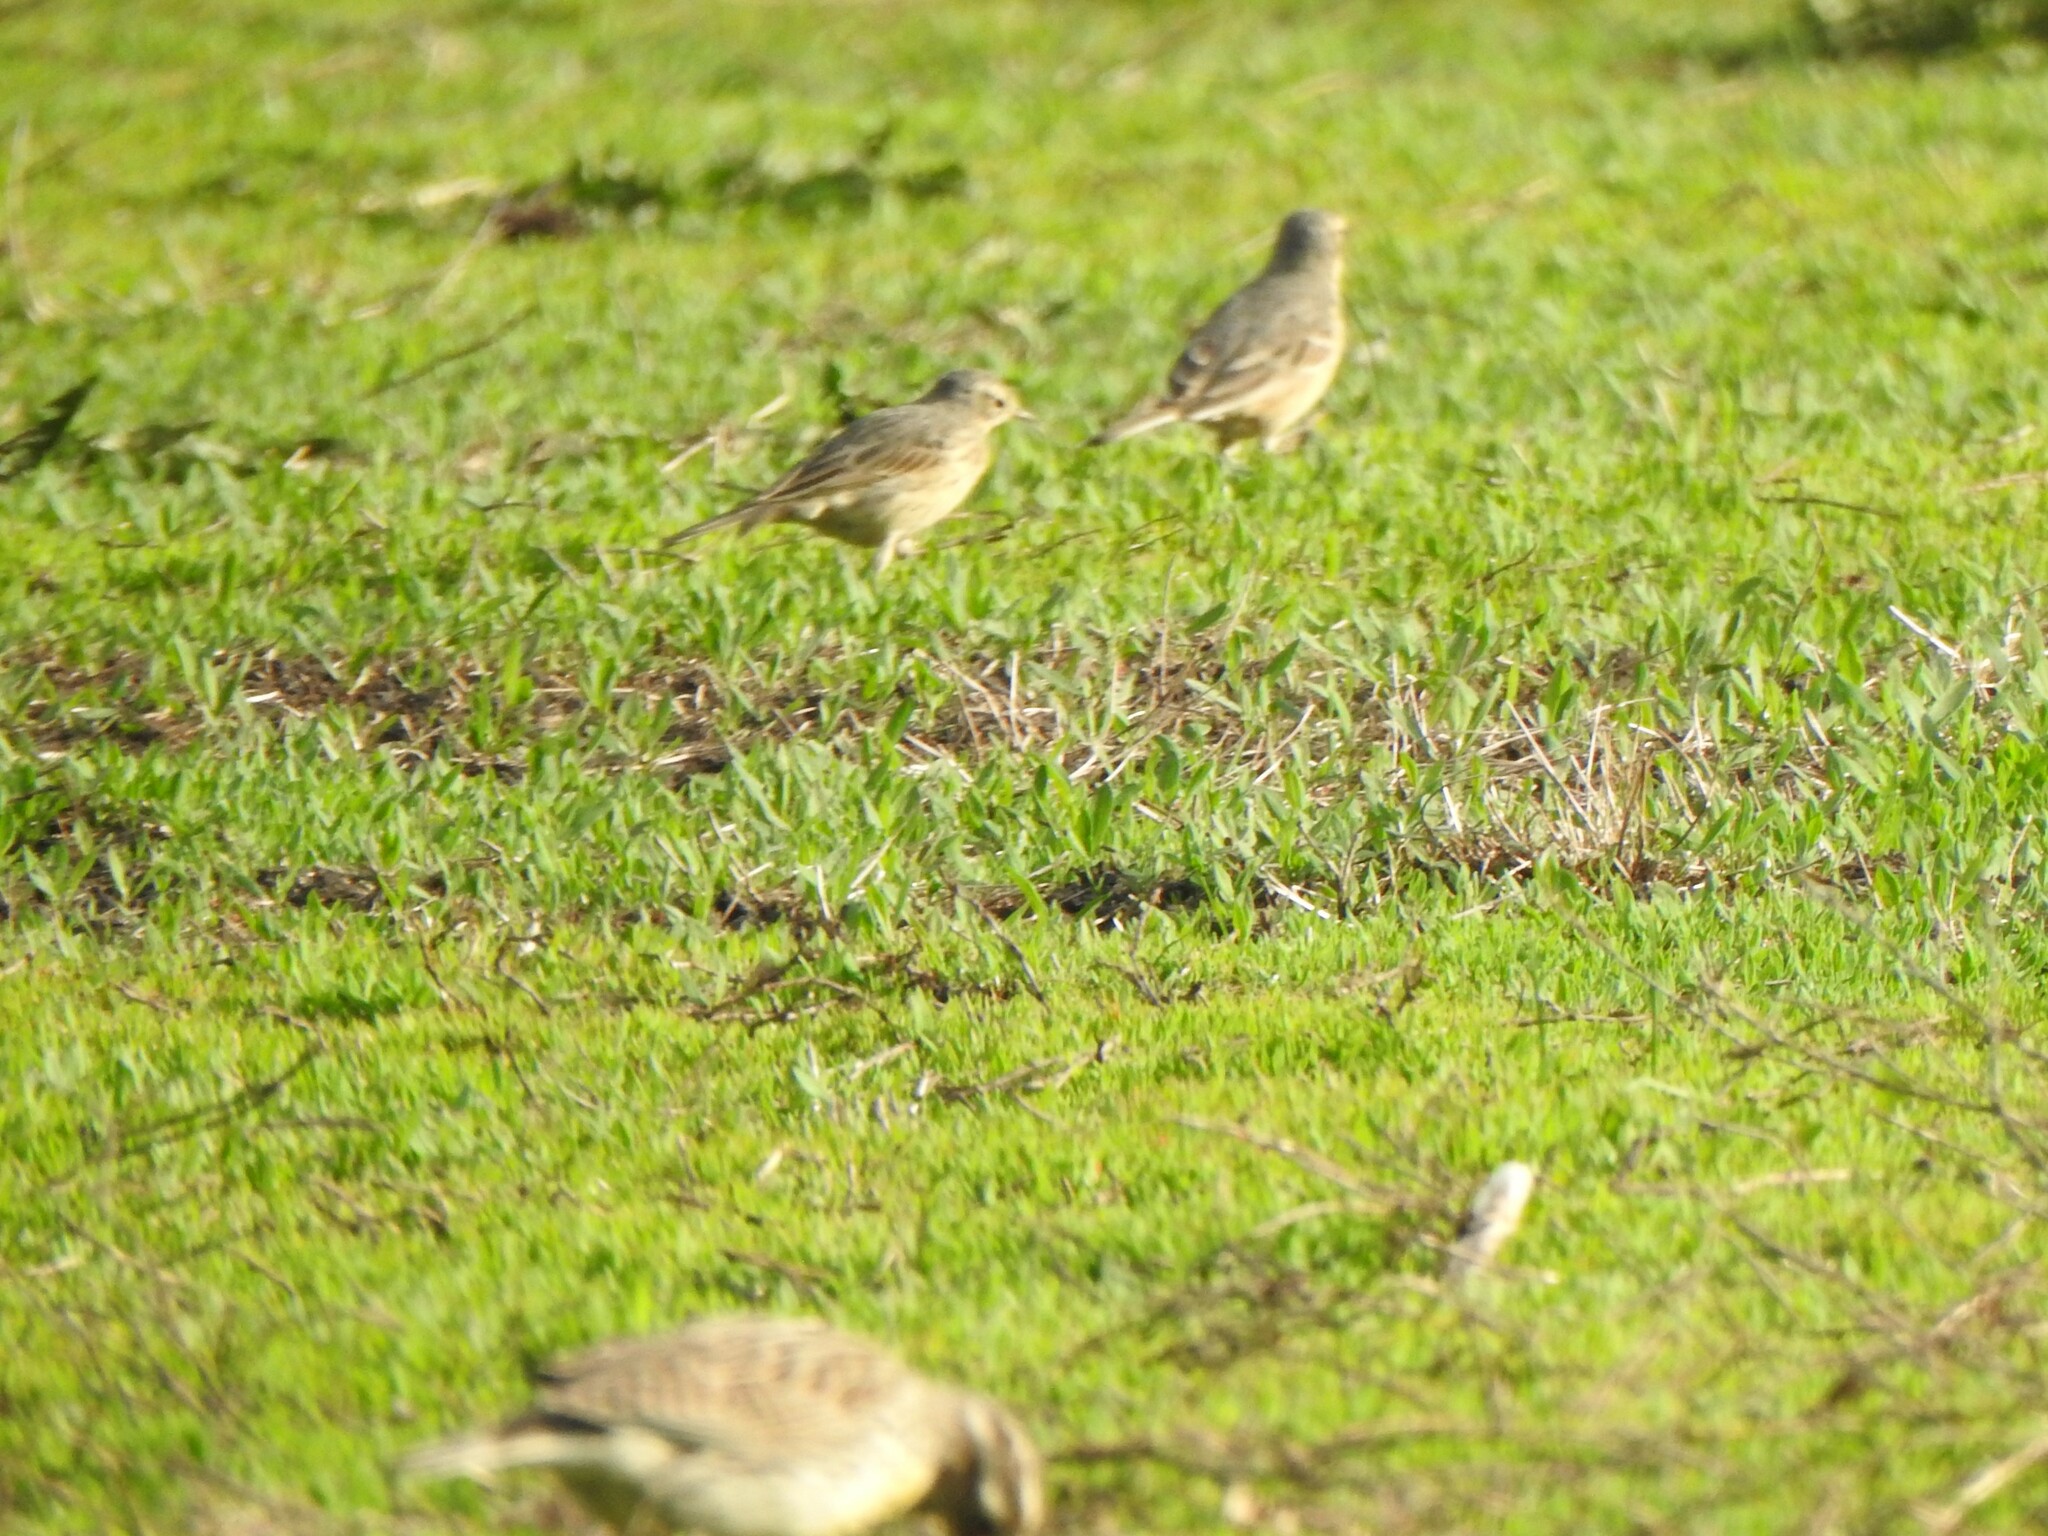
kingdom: Animalia
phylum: Chordata
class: Aves
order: Passeriformes
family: Motacillidae
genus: Anthus
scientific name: Anthus rubescens
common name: Buff-bellied pipit
